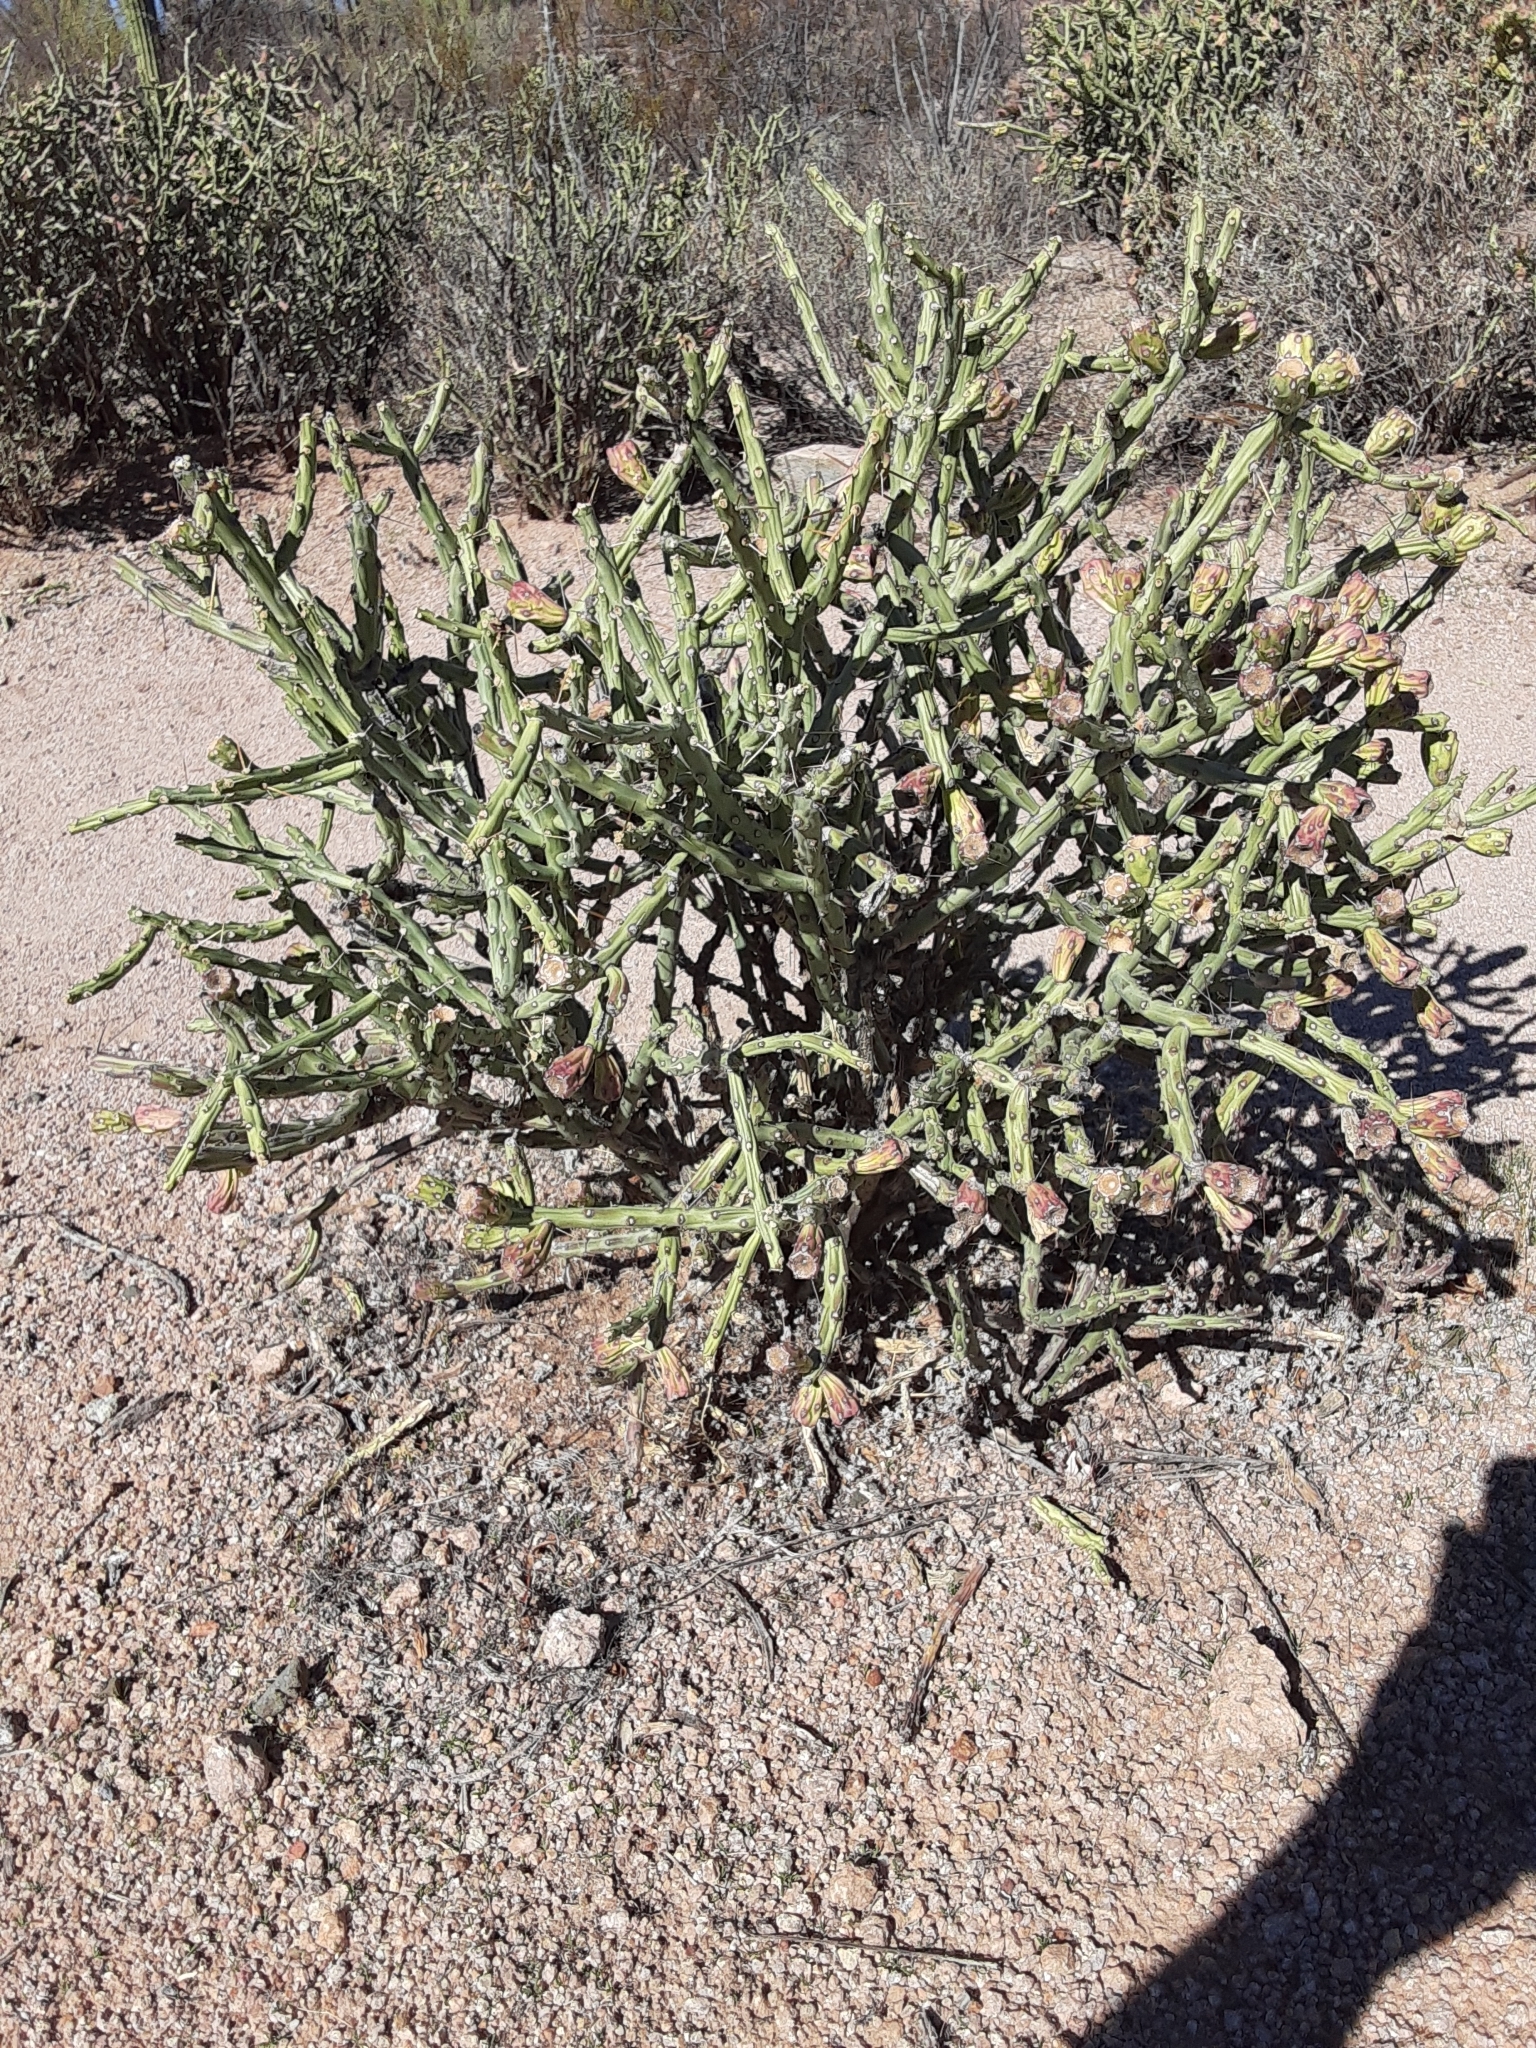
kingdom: Plantae
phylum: Tracheophyta
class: Magnoliopsida
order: Caryophyllales
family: Cactaceae
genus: Cylindropuntia
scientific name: Cylindropuntia arbuscula
